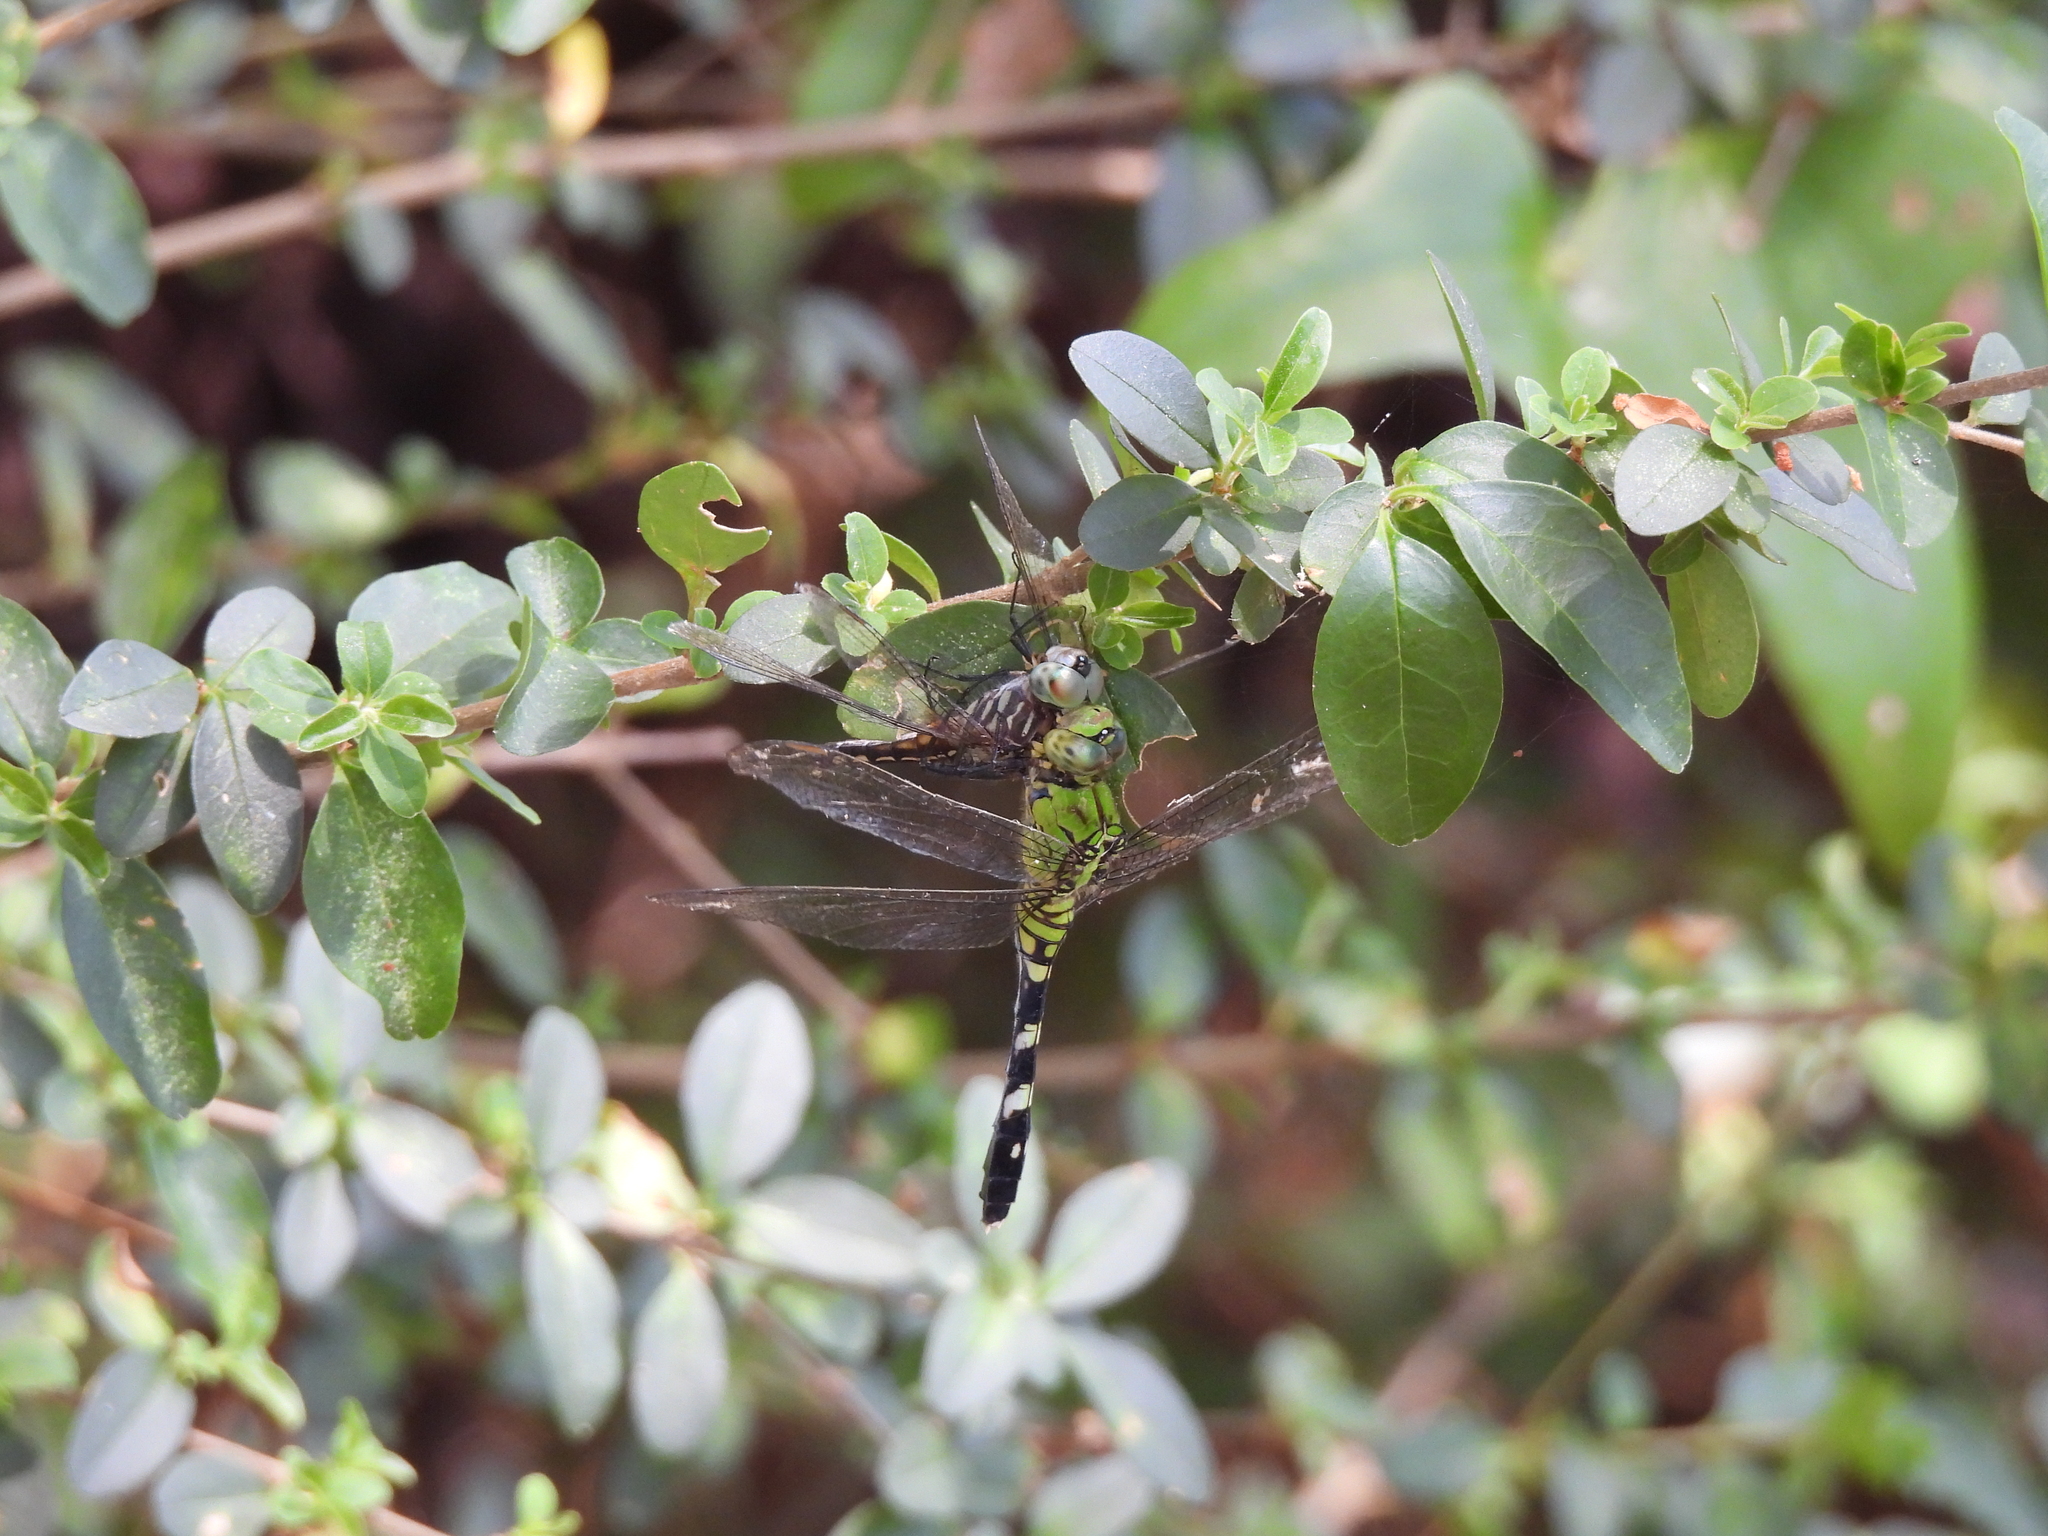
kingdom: Animalia
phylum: Arthropoda
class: Insecta
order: Odonata
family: Libellulidae
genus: Erythemis
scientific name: Erythemis simplicicollis
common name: Eastern pondhawk
